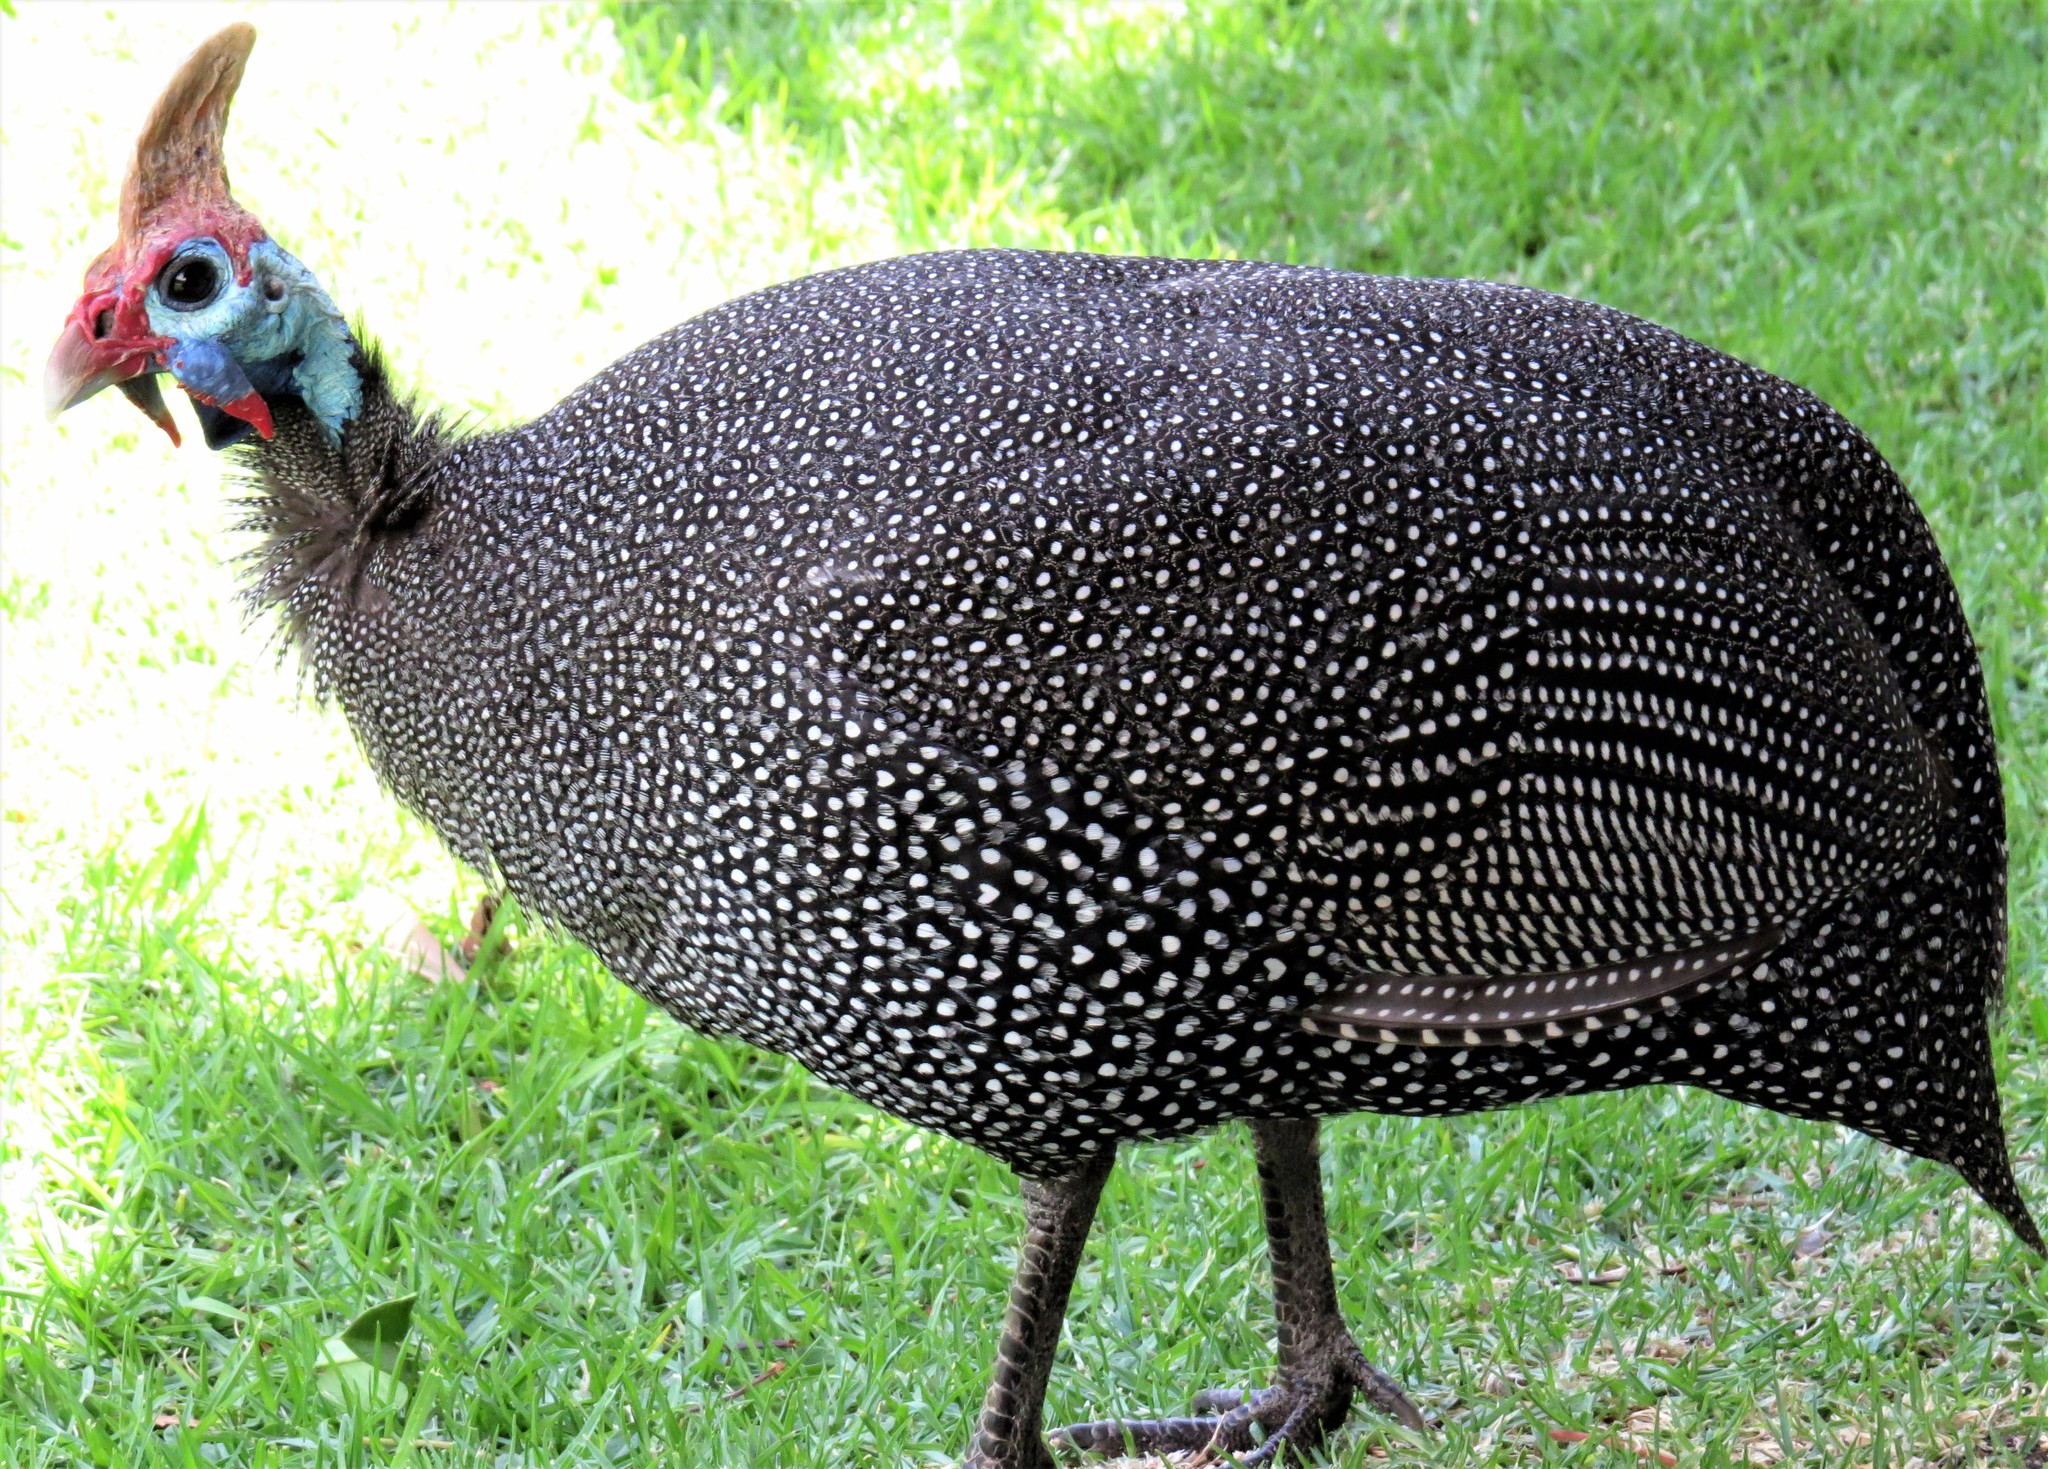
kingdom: Animalia
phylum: Chordata
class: Aves
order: Galliformes
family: Numididae
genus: Numida
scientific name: Numida meleagris
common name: Helmeted guineafowl
